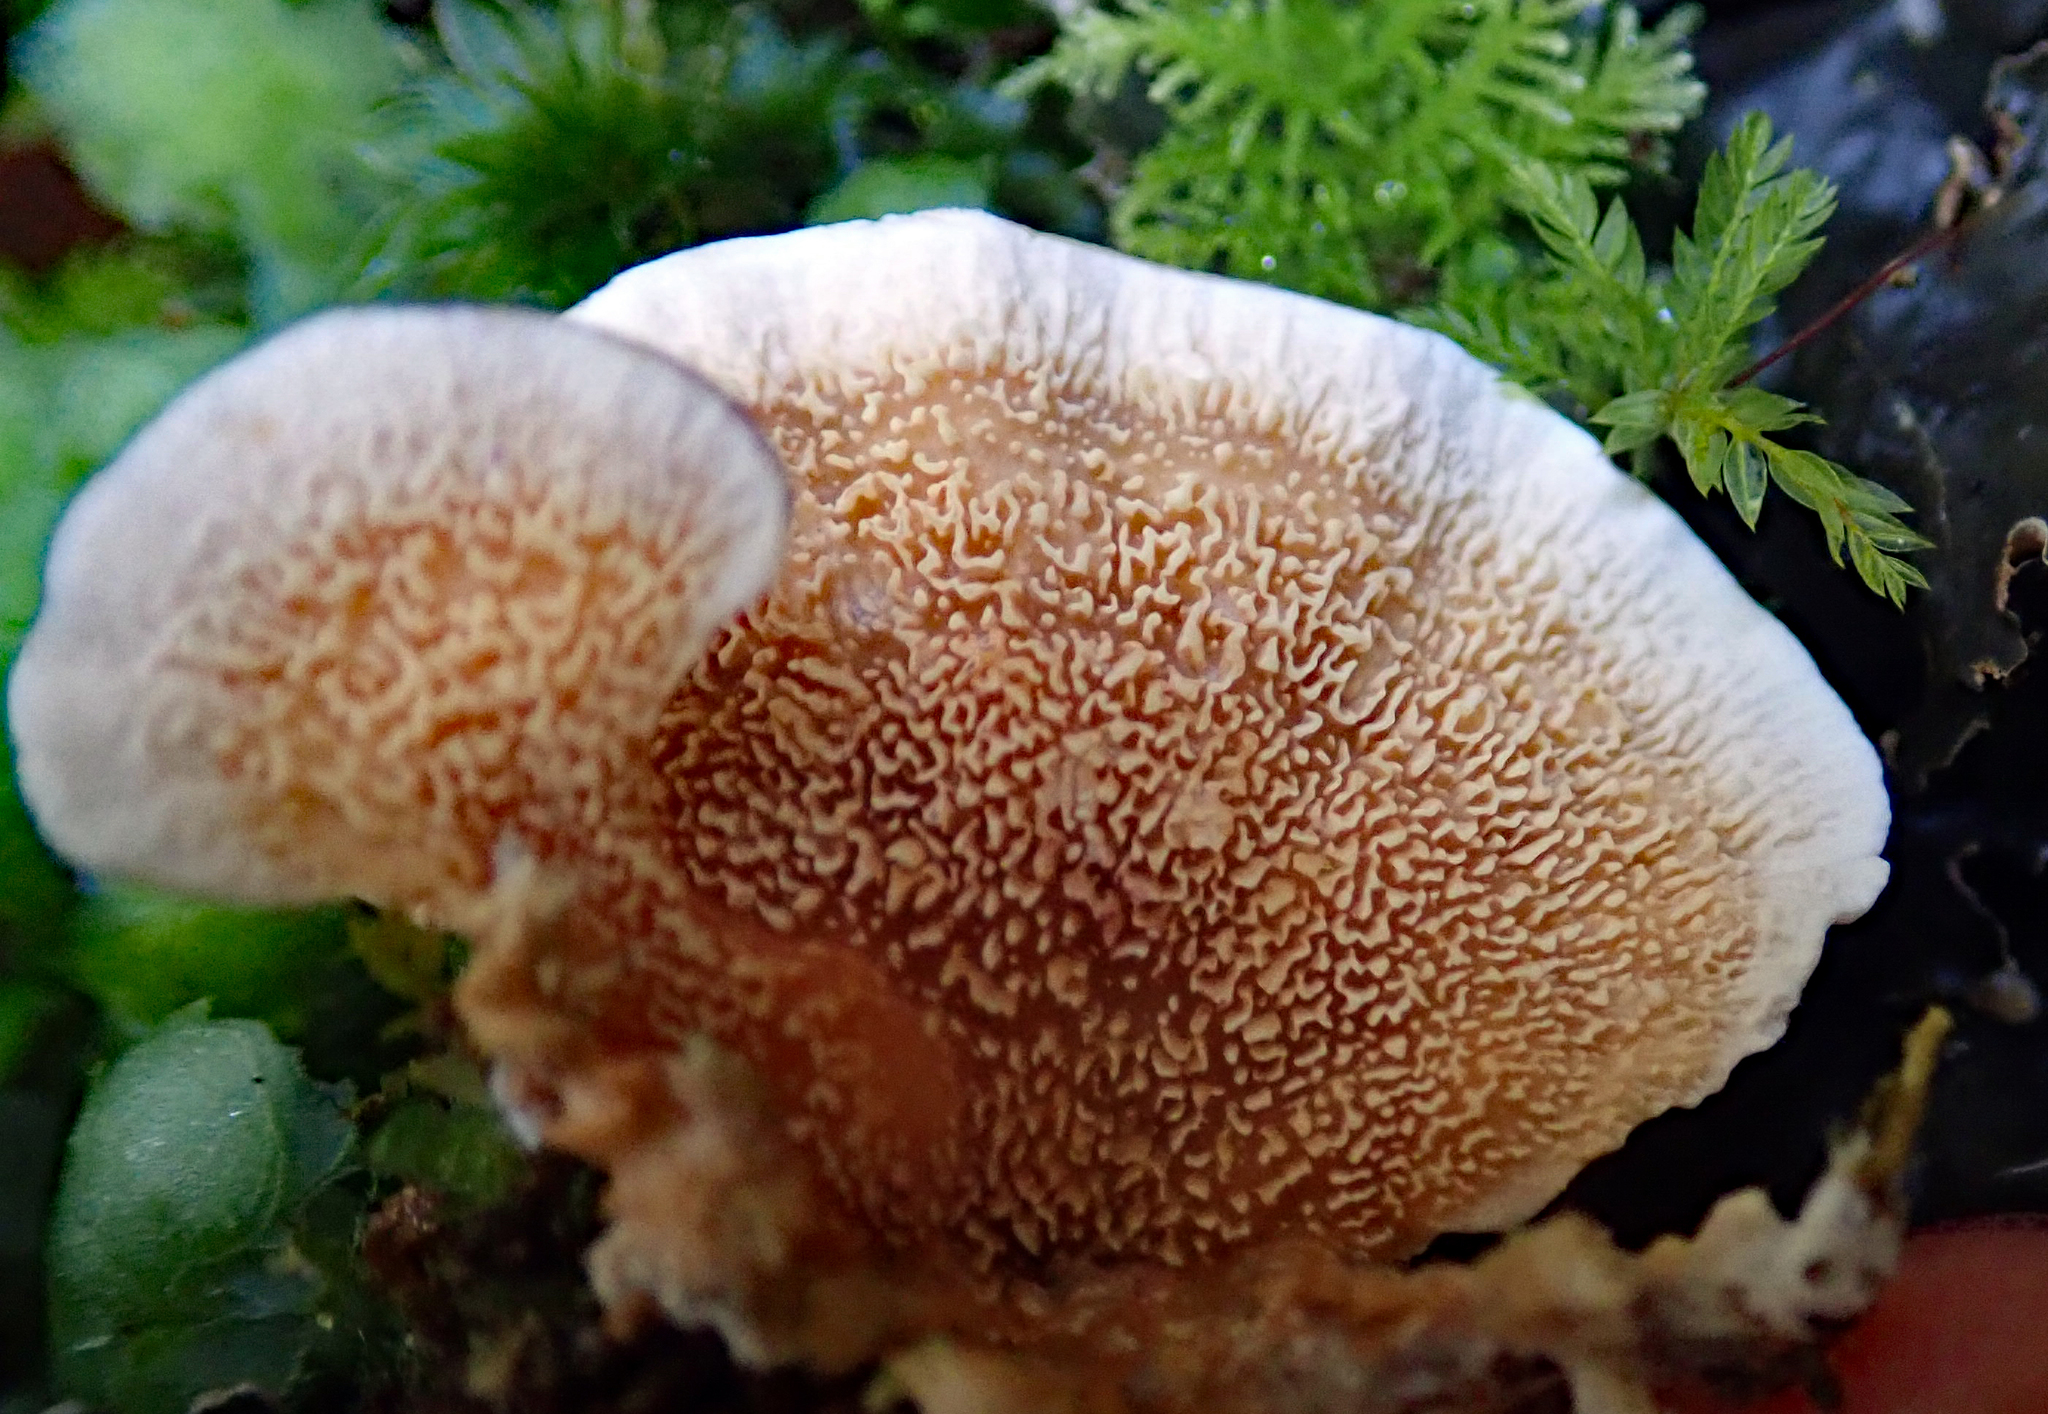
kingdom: Fungi
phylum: Basidiomycota
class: Agaricomycetes
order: Polyporales
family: Cerrenaceae
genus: Cerrena
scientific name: Cerrena zonata
